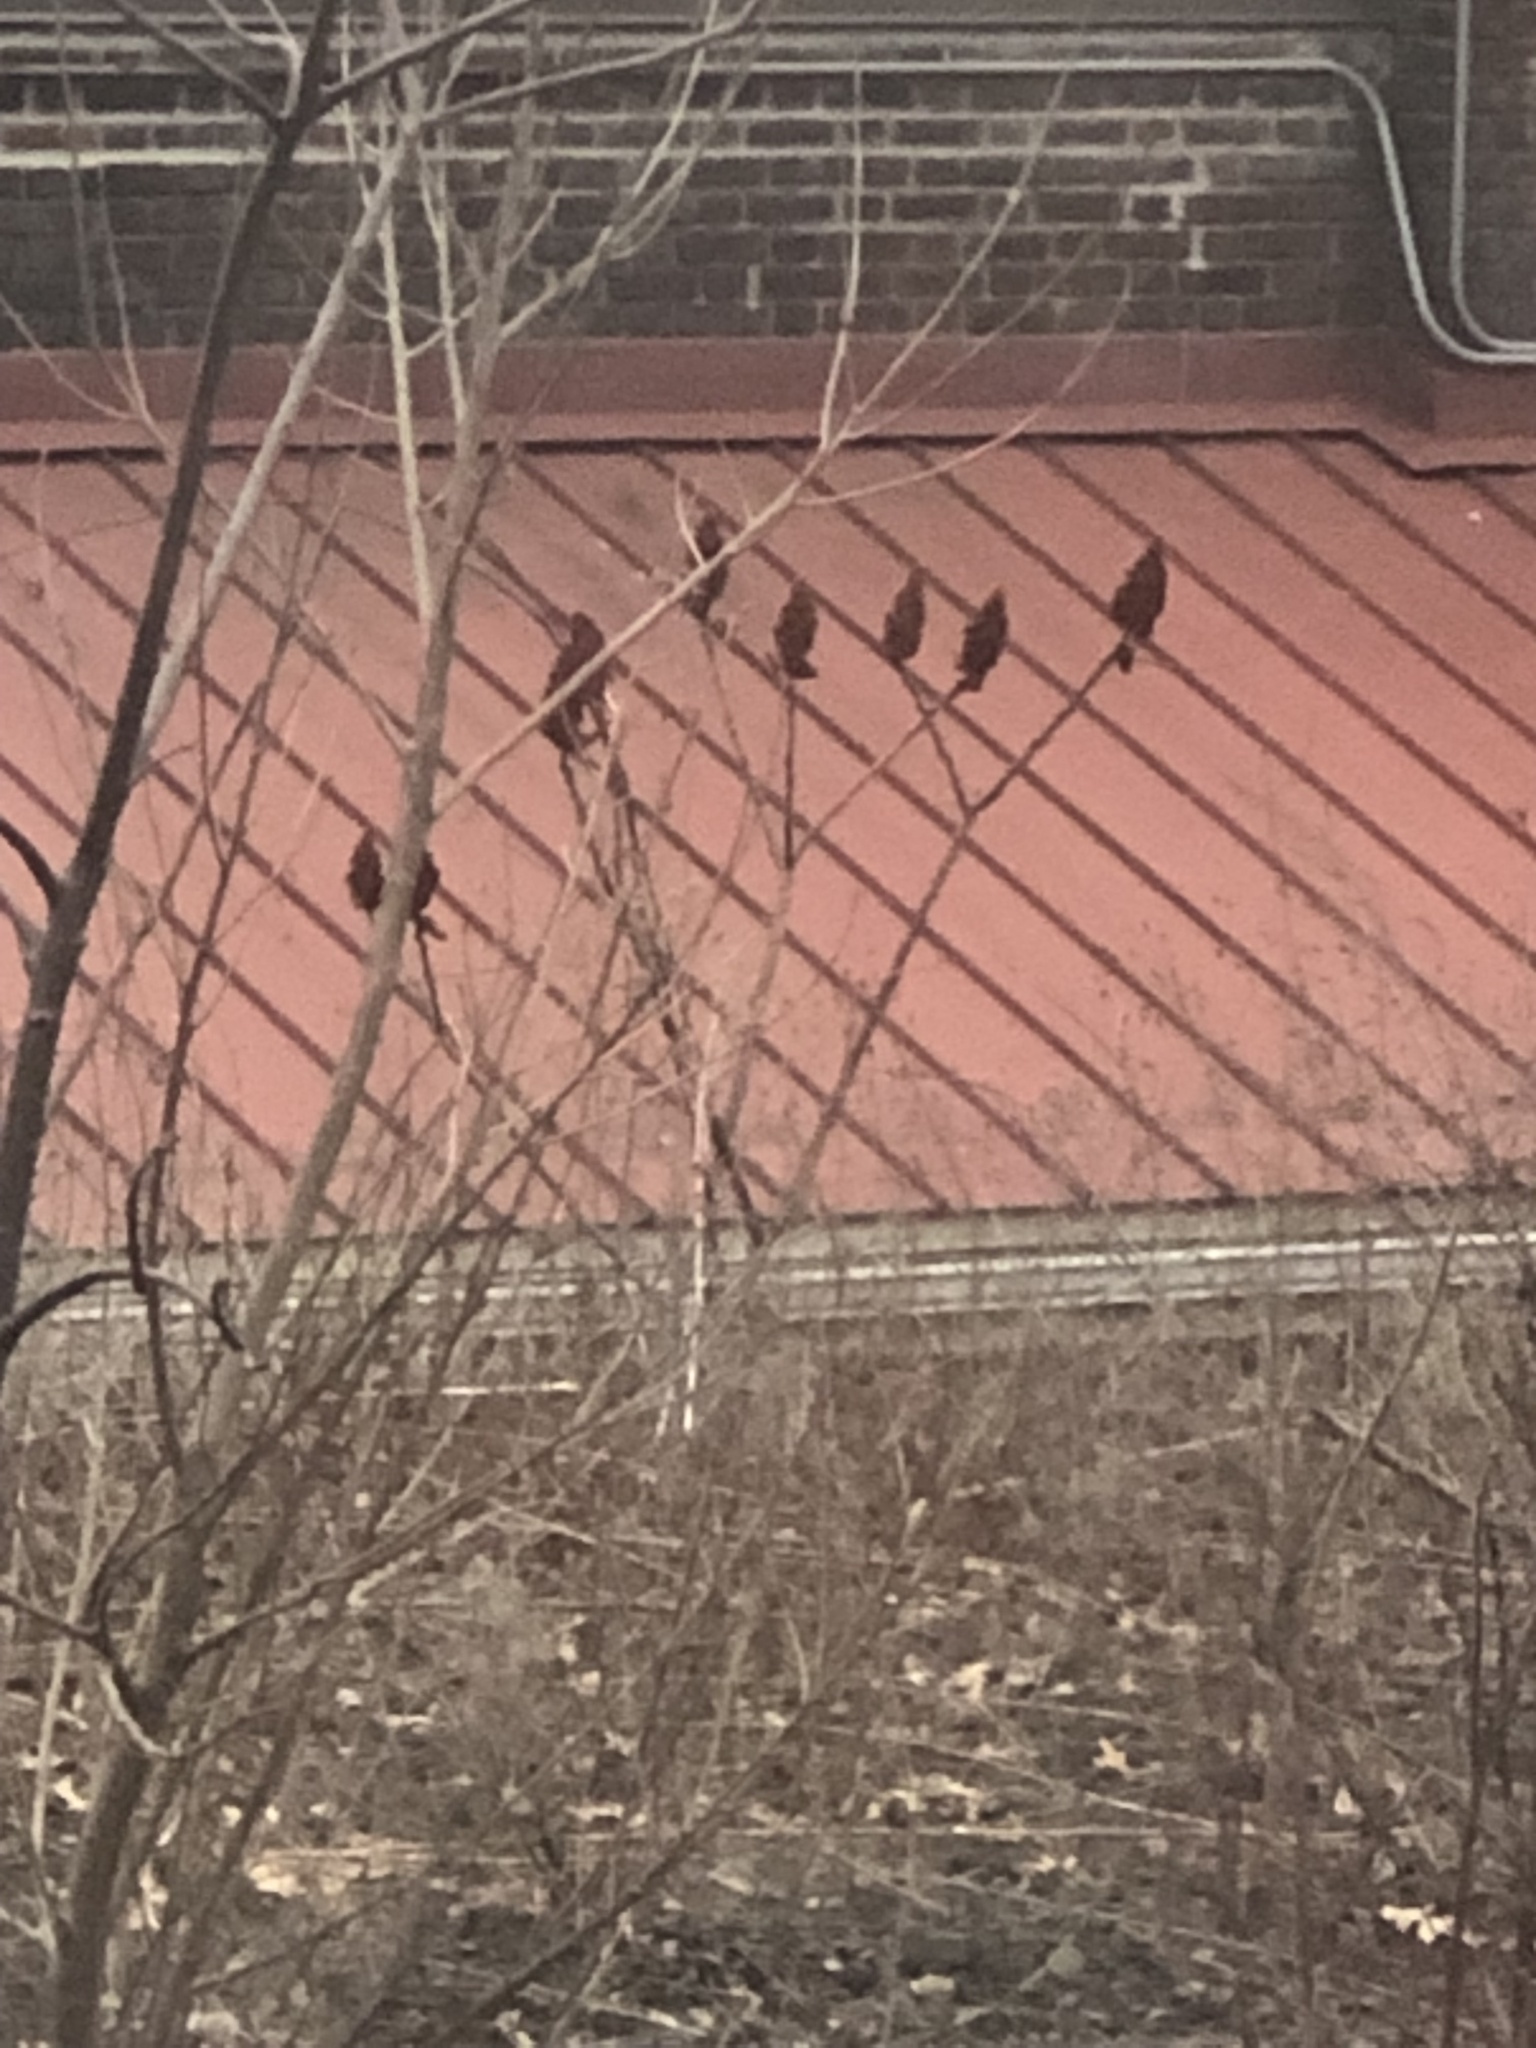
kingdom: Plantae
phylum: Tracheophyta
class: Magnoliopsida
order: Sapindales
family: Anacardiaceae
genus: Rhus
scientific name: Rhus typhina
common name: Staghorn sumac
